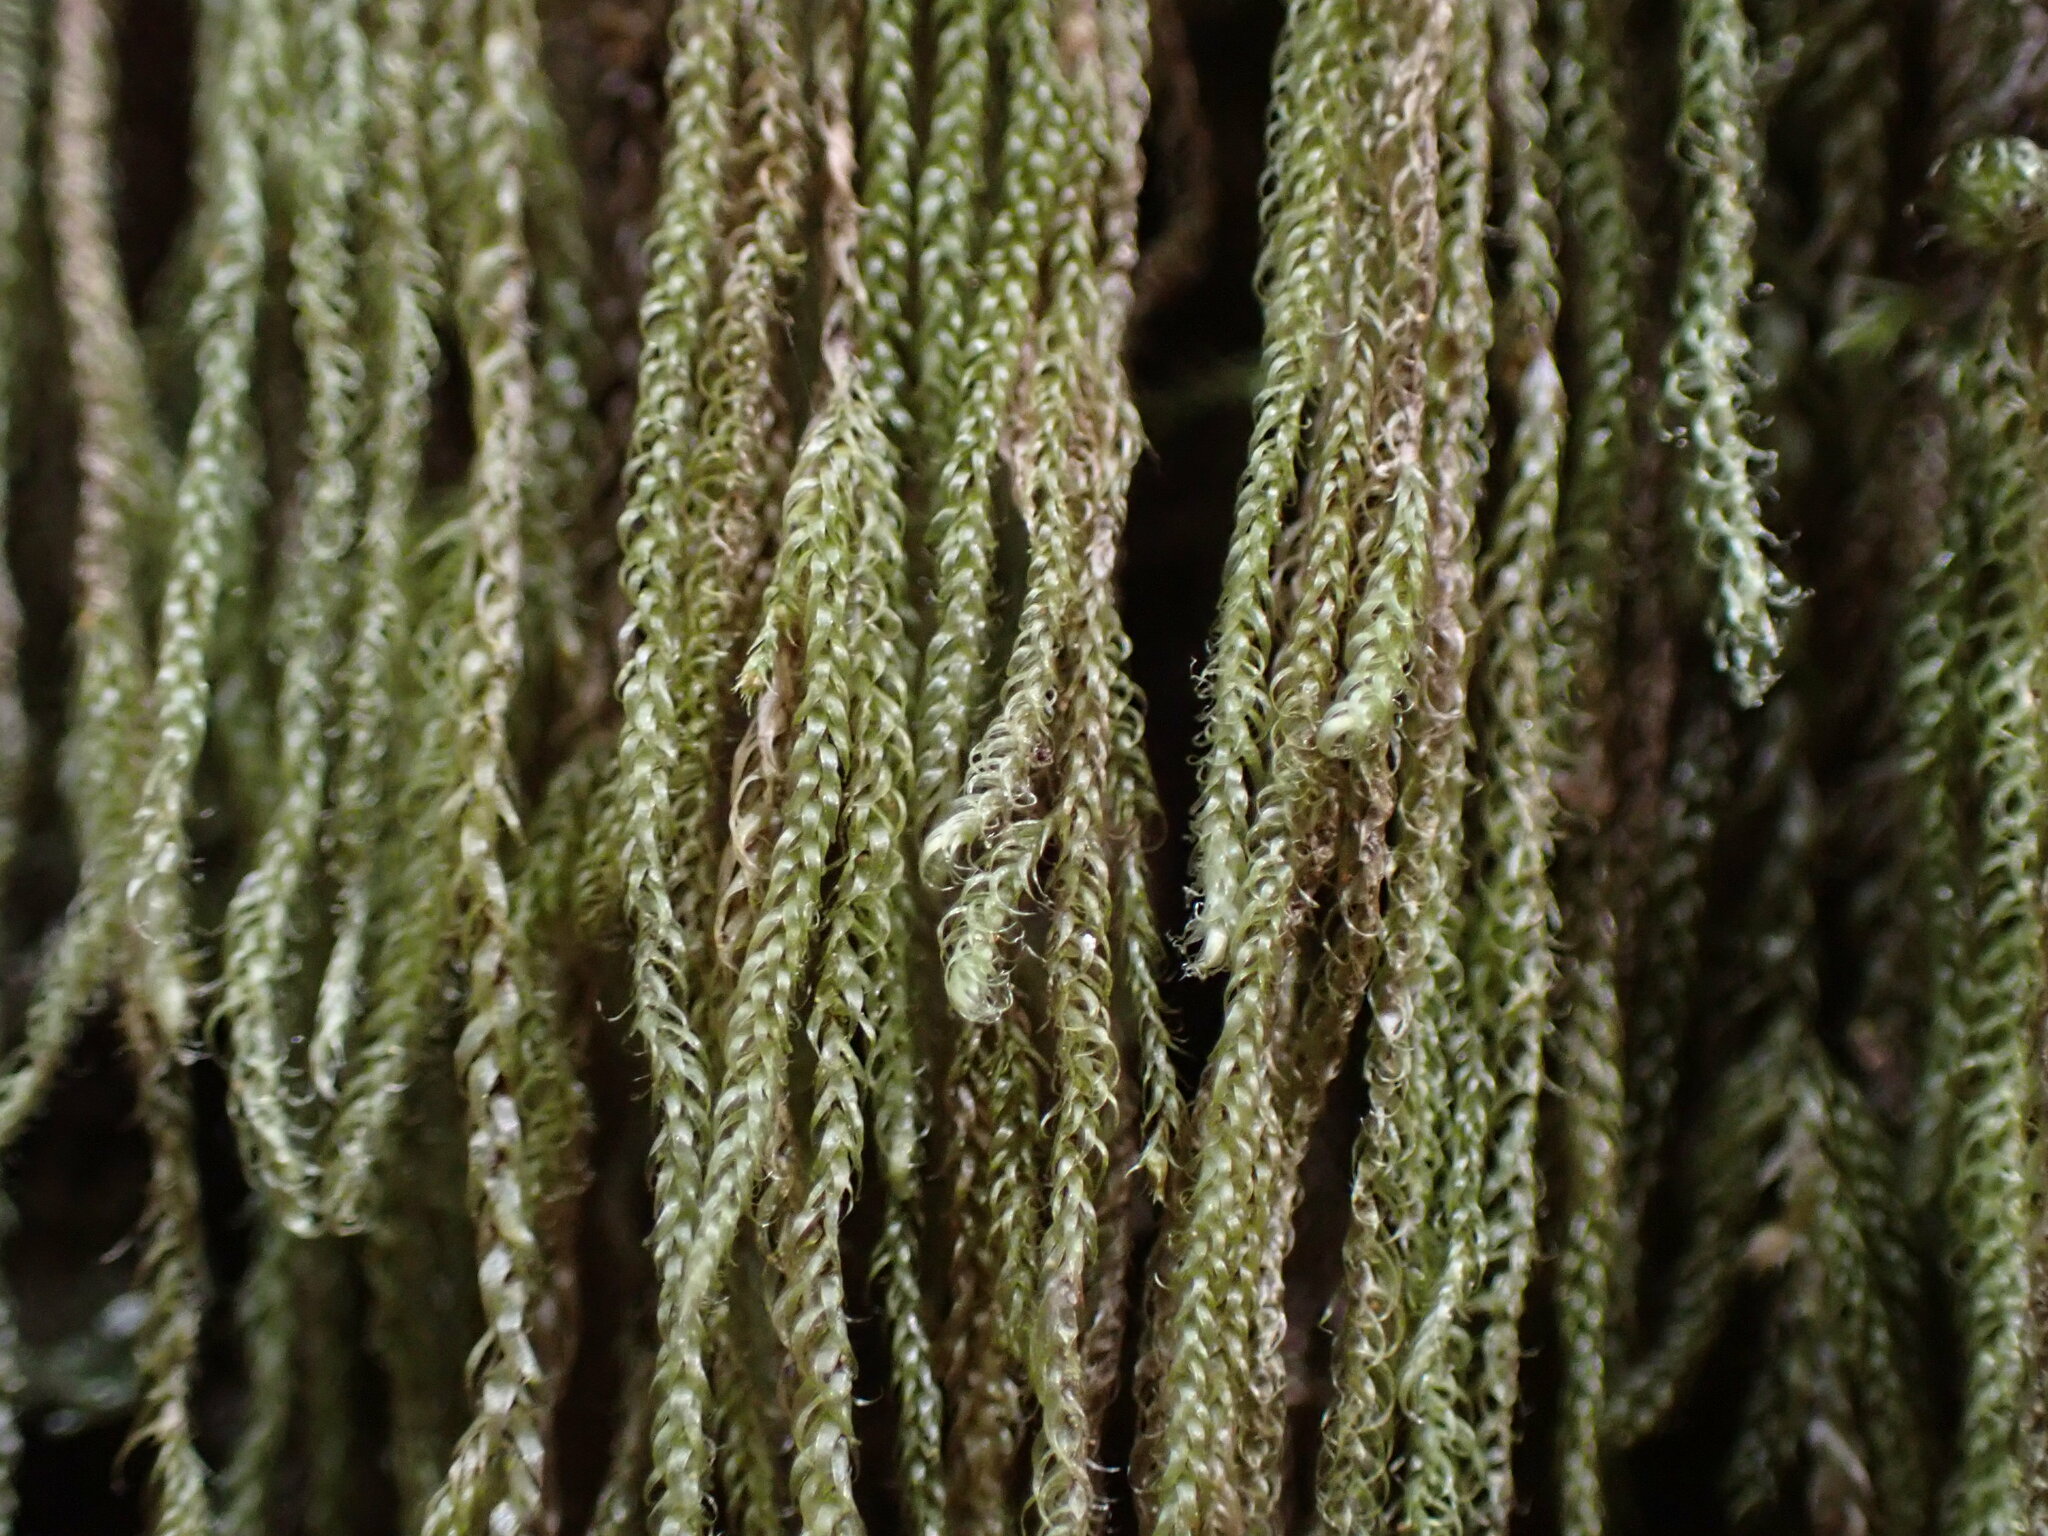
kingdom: Plantae
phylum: Bryophyta
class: Bryopsida
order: Hypnales
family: Pylaisiadelphaceae
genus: Trochophyllohypnum
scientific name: Trochophyllohypnum circinale
